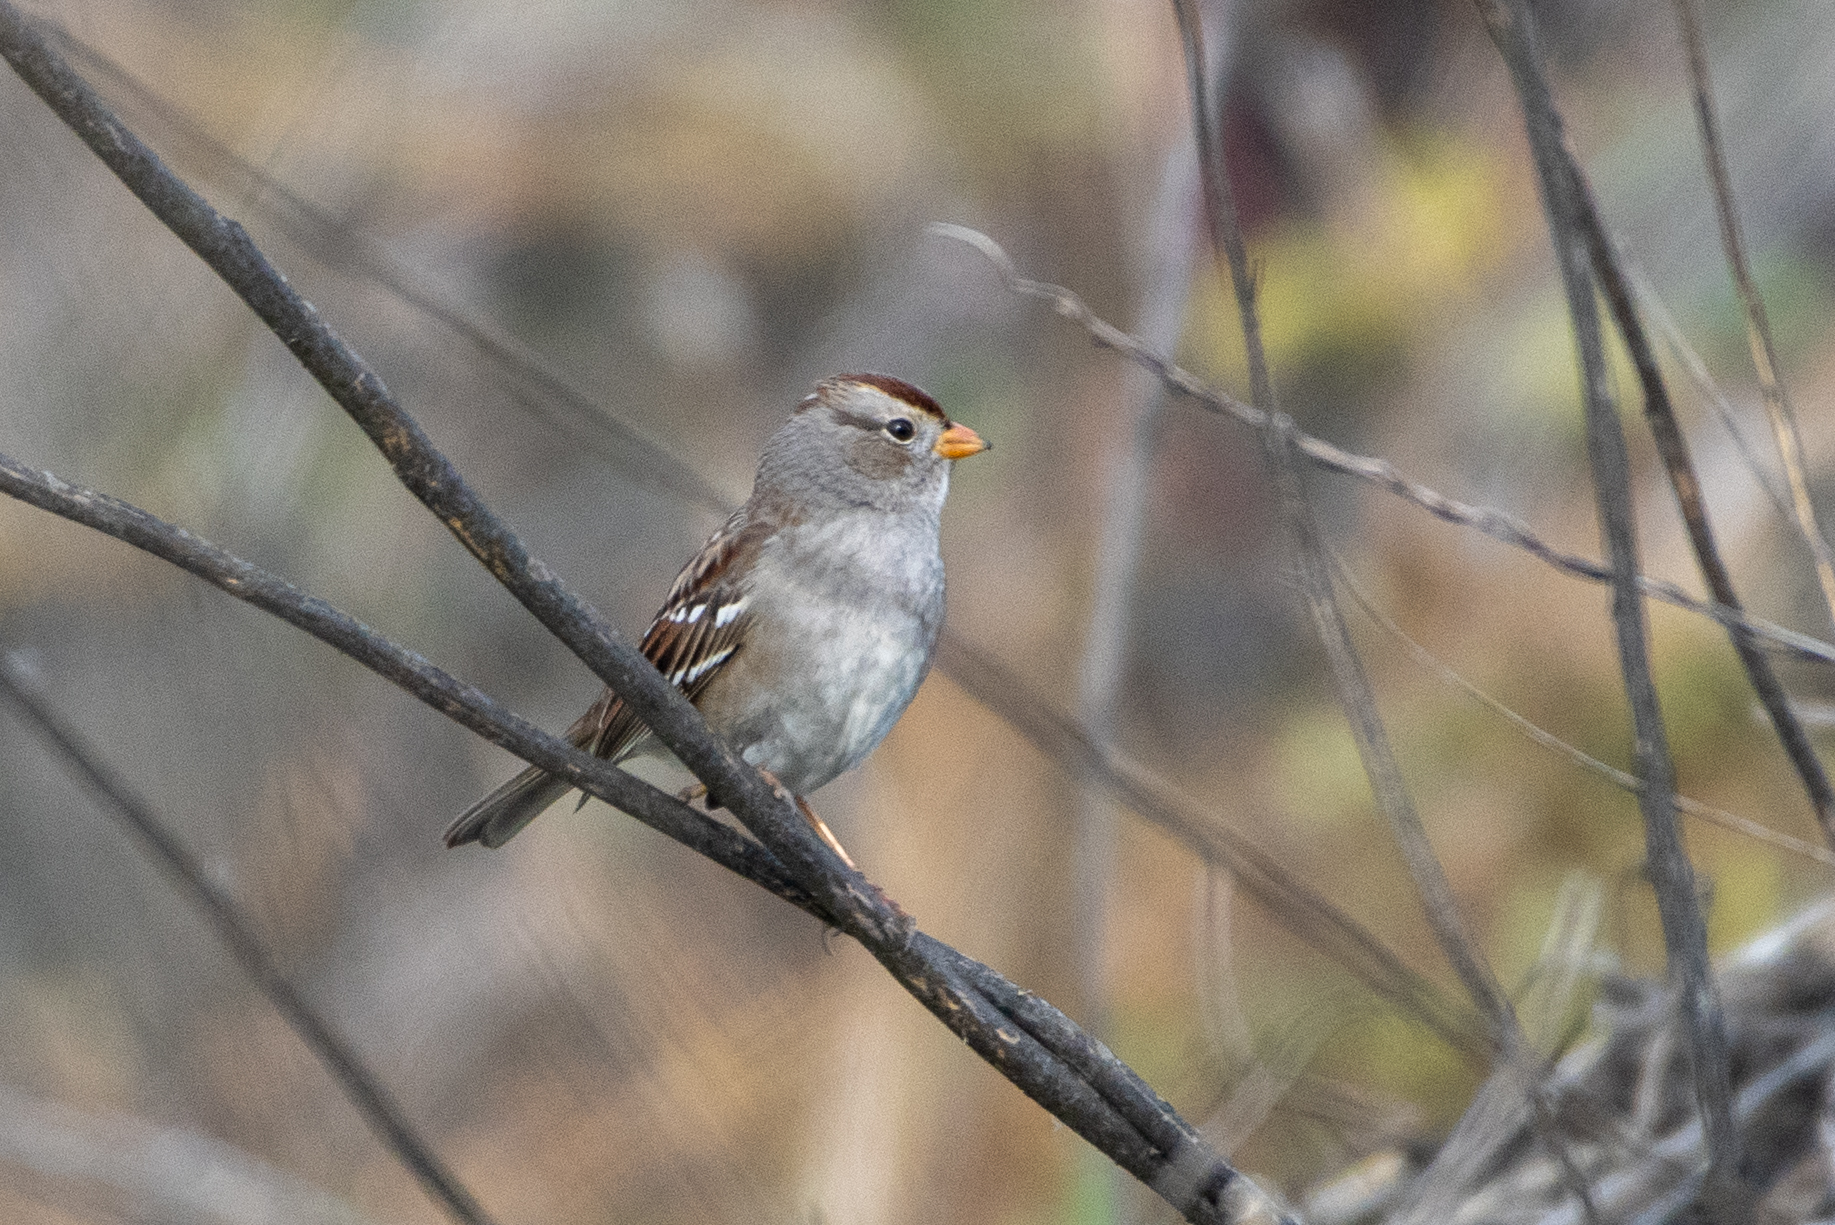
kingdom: Animalia
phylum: Chordata
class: Aves
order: Passeriformes
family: Passerellidae
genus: Zonotrichia
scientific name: Zonotrichia leucophrys
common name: White-crowned sparrow
